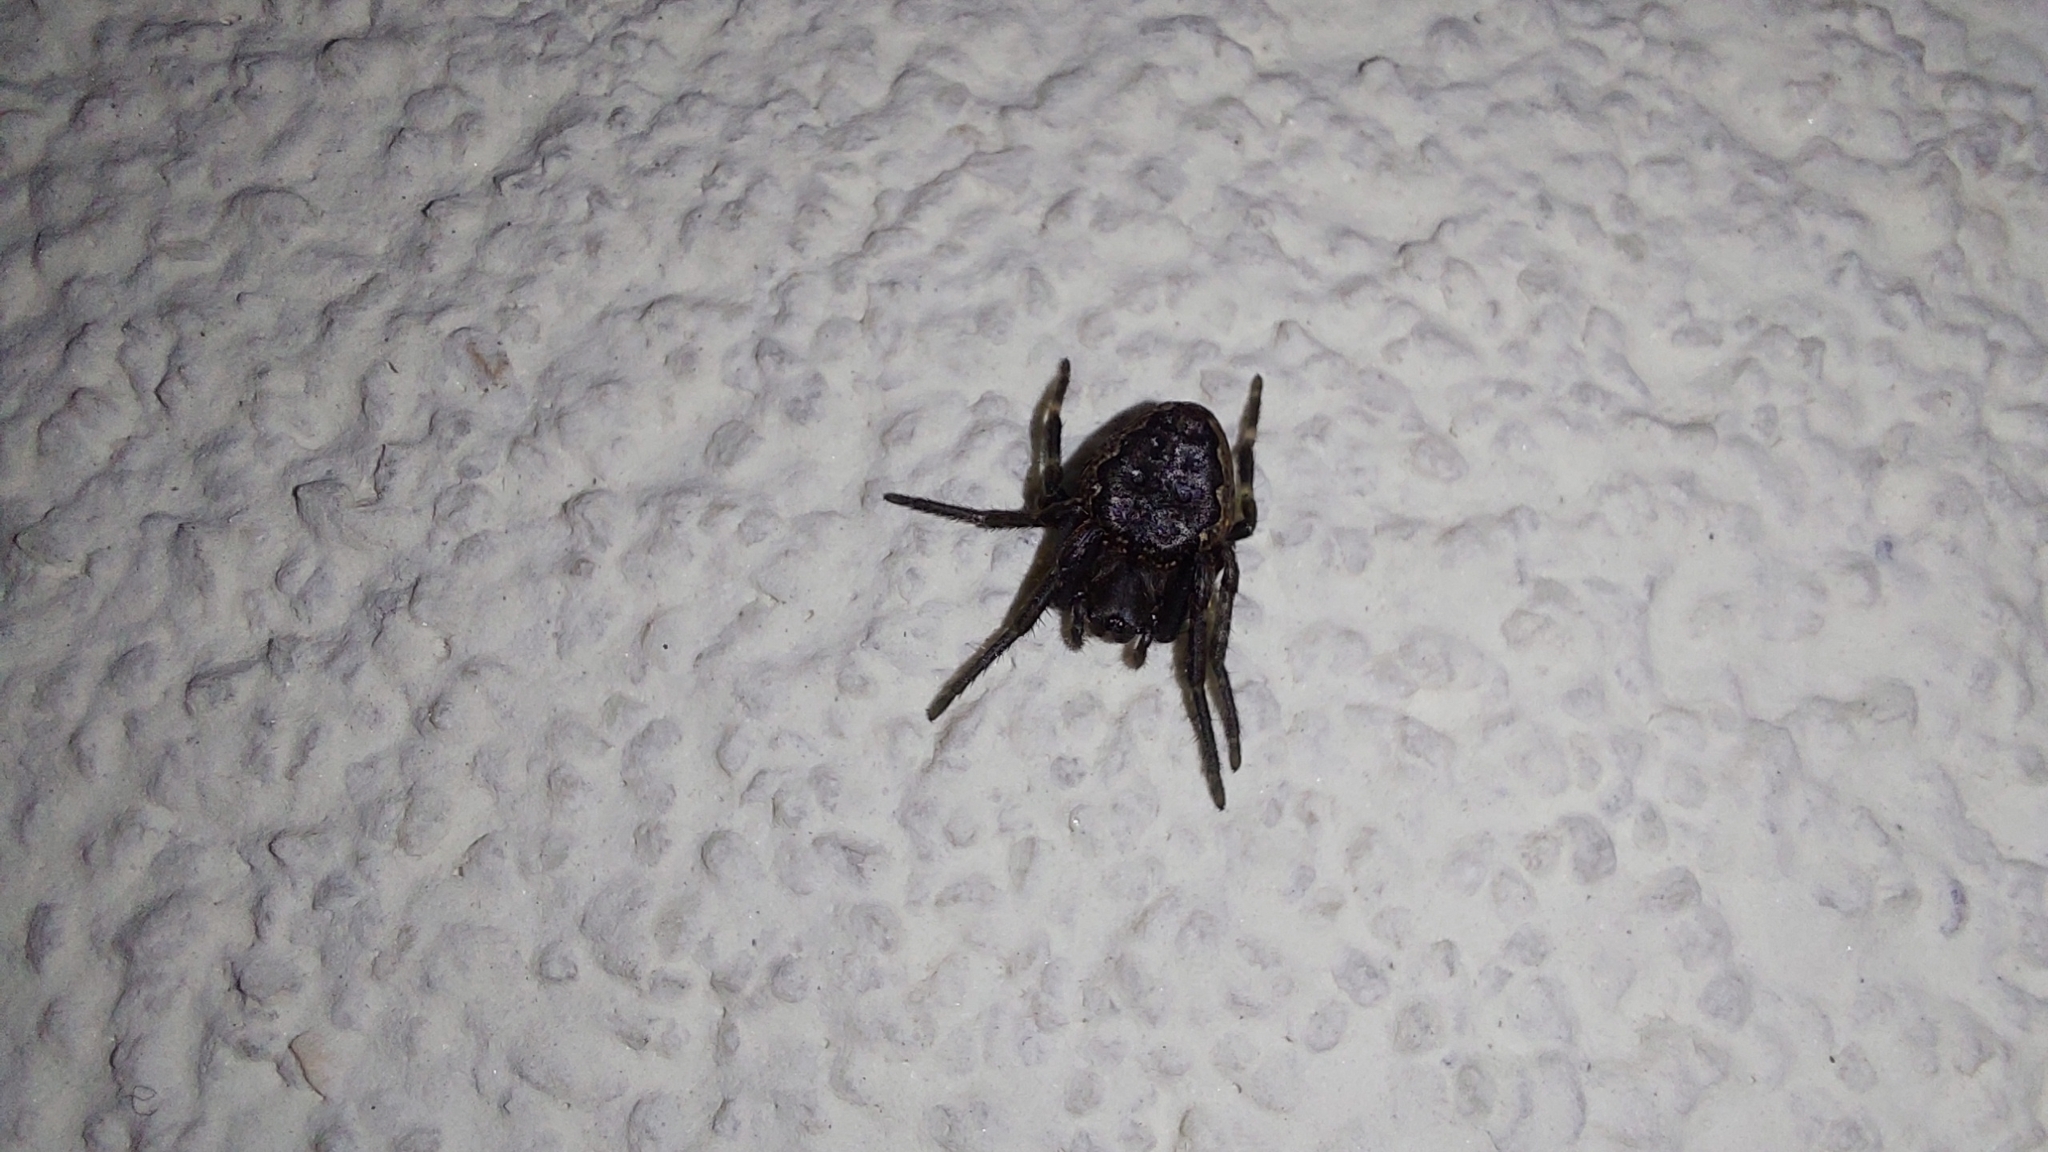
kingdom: Animalia
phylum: Arthropoda
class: Arachnida
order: Araneae
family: Araneidae
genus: Nuctenea
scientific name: Nuctenea umbratica
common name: Toad spider
